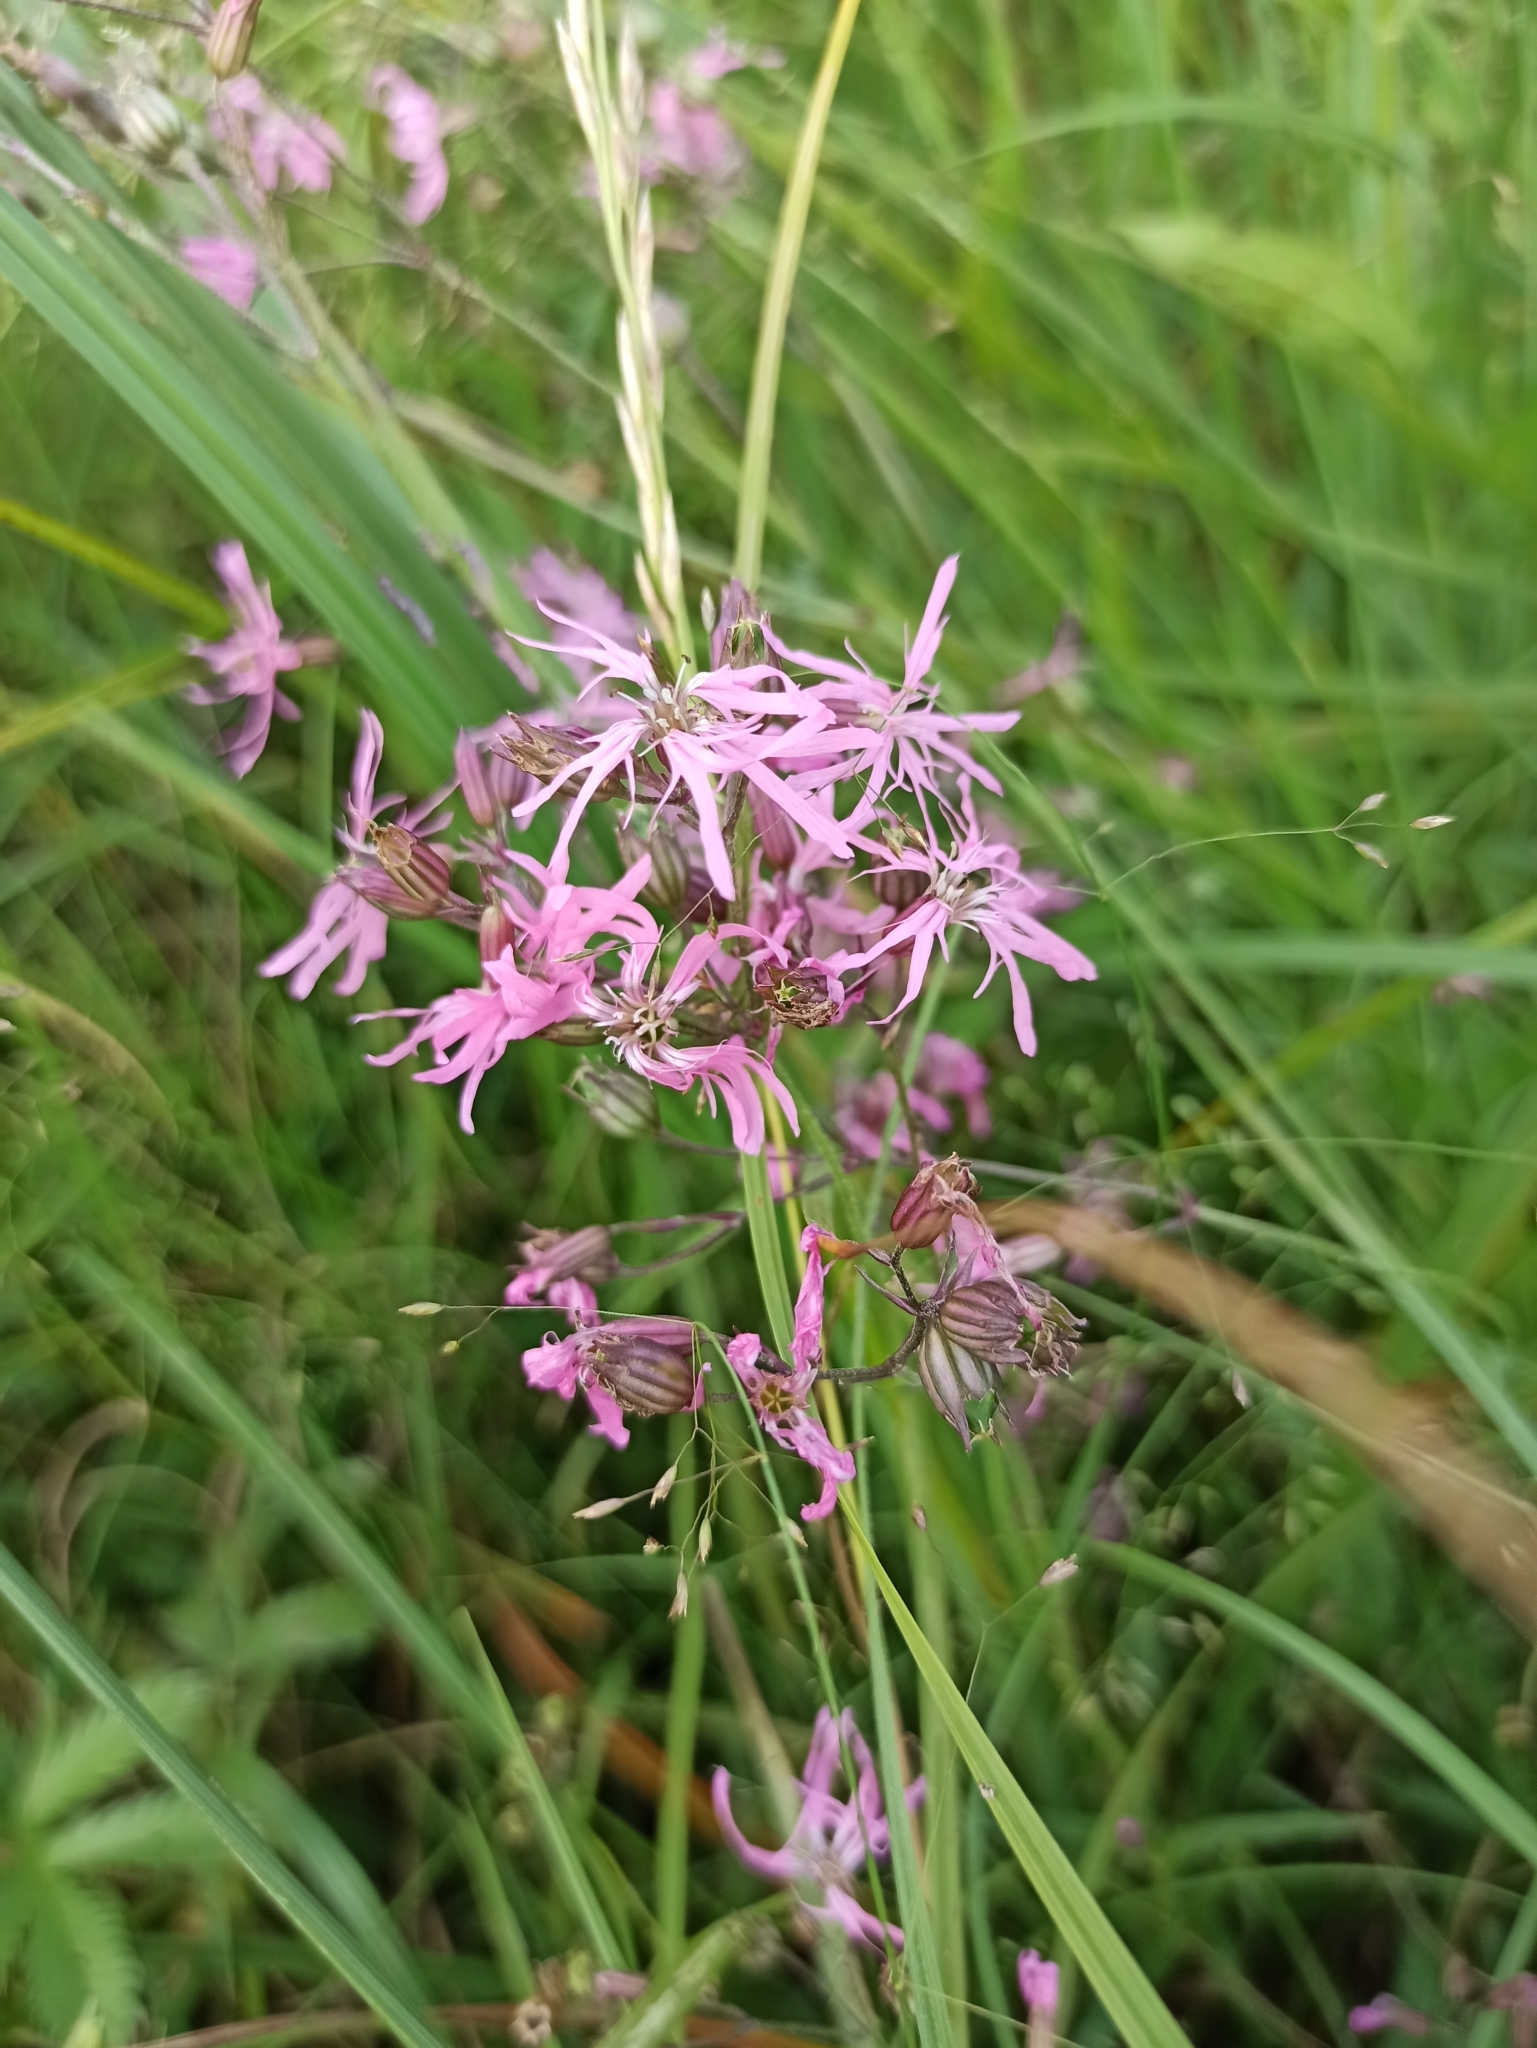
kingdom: Plantae
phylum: Tracheophyta
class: Magnoliopsida
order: Caryophyllales
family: Caryophyllaceae
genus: Silene
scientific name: Silene flos-cuculi
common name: Ragged-robin
